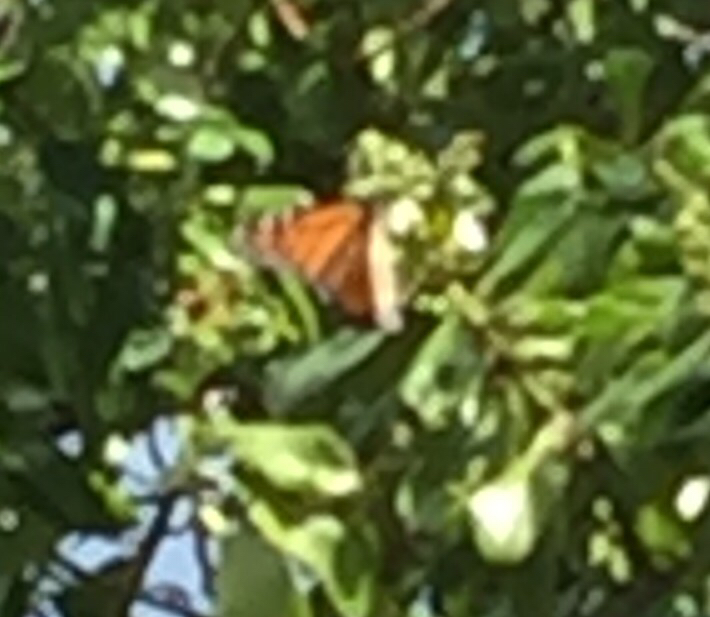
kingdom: Animalia
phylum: Arthropoda
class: Insecta
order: Lepidoptera
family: Nymphalidae
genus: Danaus
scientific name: Danaus plexippus
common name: Monarch
